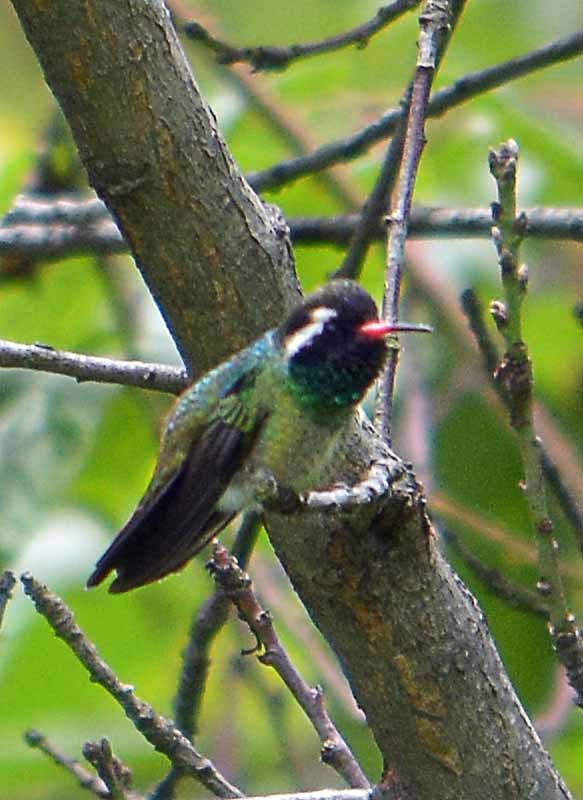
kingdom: Animalia
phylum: Chordata
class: Aves
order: Apodiformes
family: Trochilidae
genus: Basilinna
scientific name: Basilinna leucotis
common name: White-eared hummingbird
